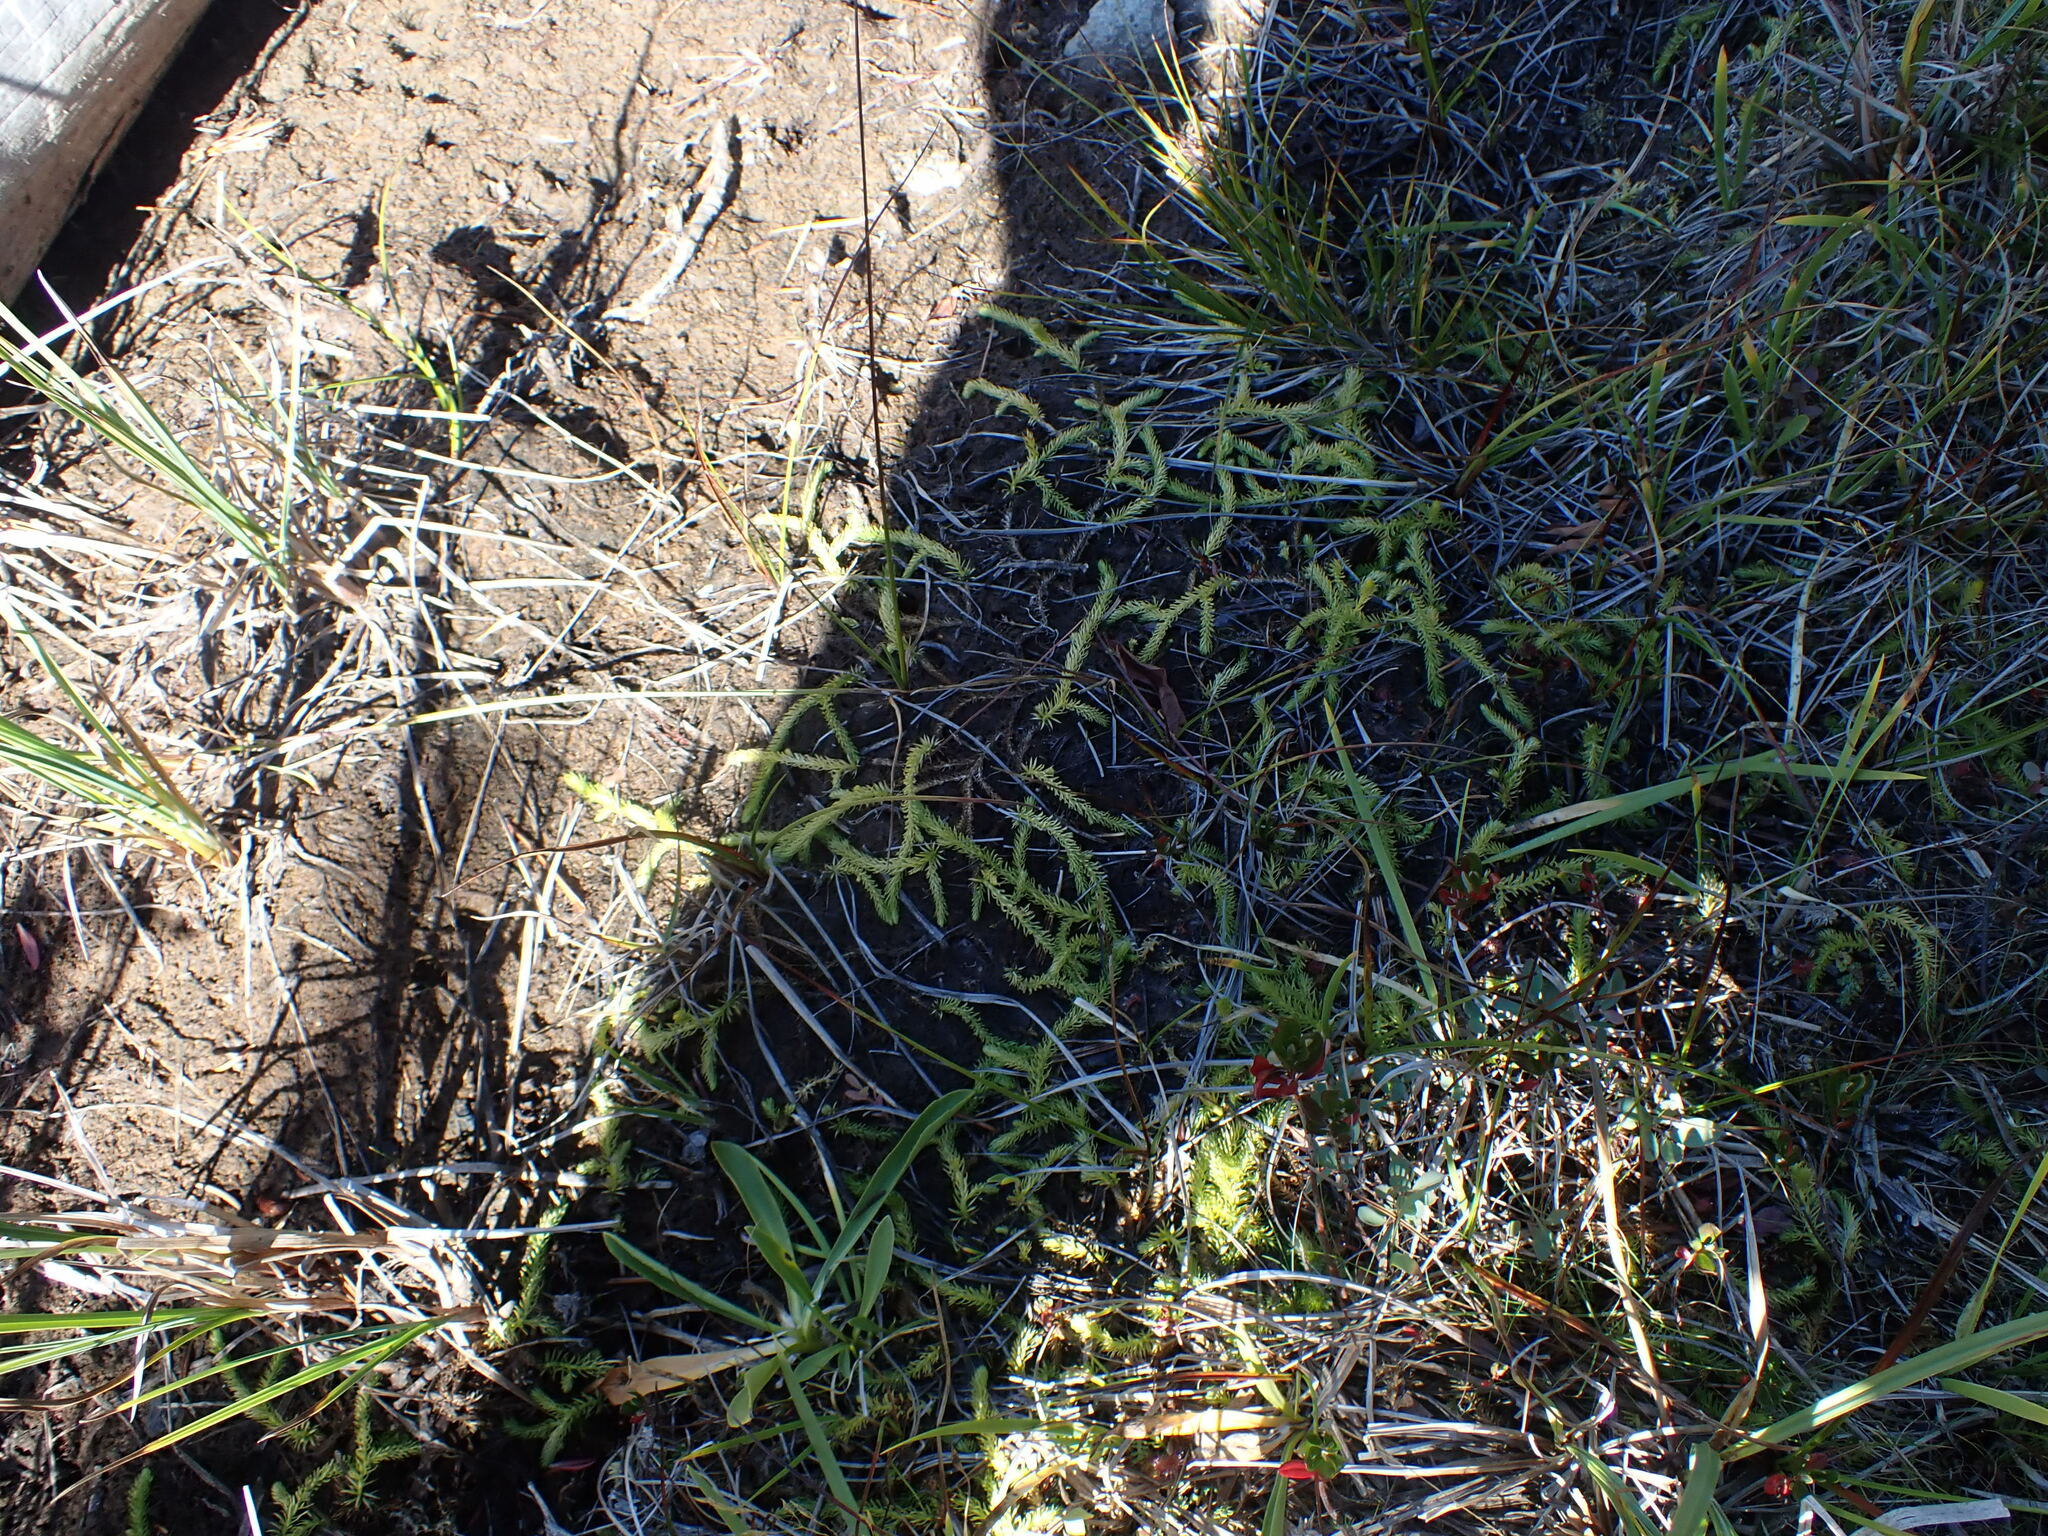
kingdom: Plantae
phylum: Tracheophyta
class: Lycopodiopsida
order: Lycopodiales
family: Lycopodiaceae
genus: Lycopodiella
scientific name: Lycopodiella inundata
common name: Marsh clubmoss
